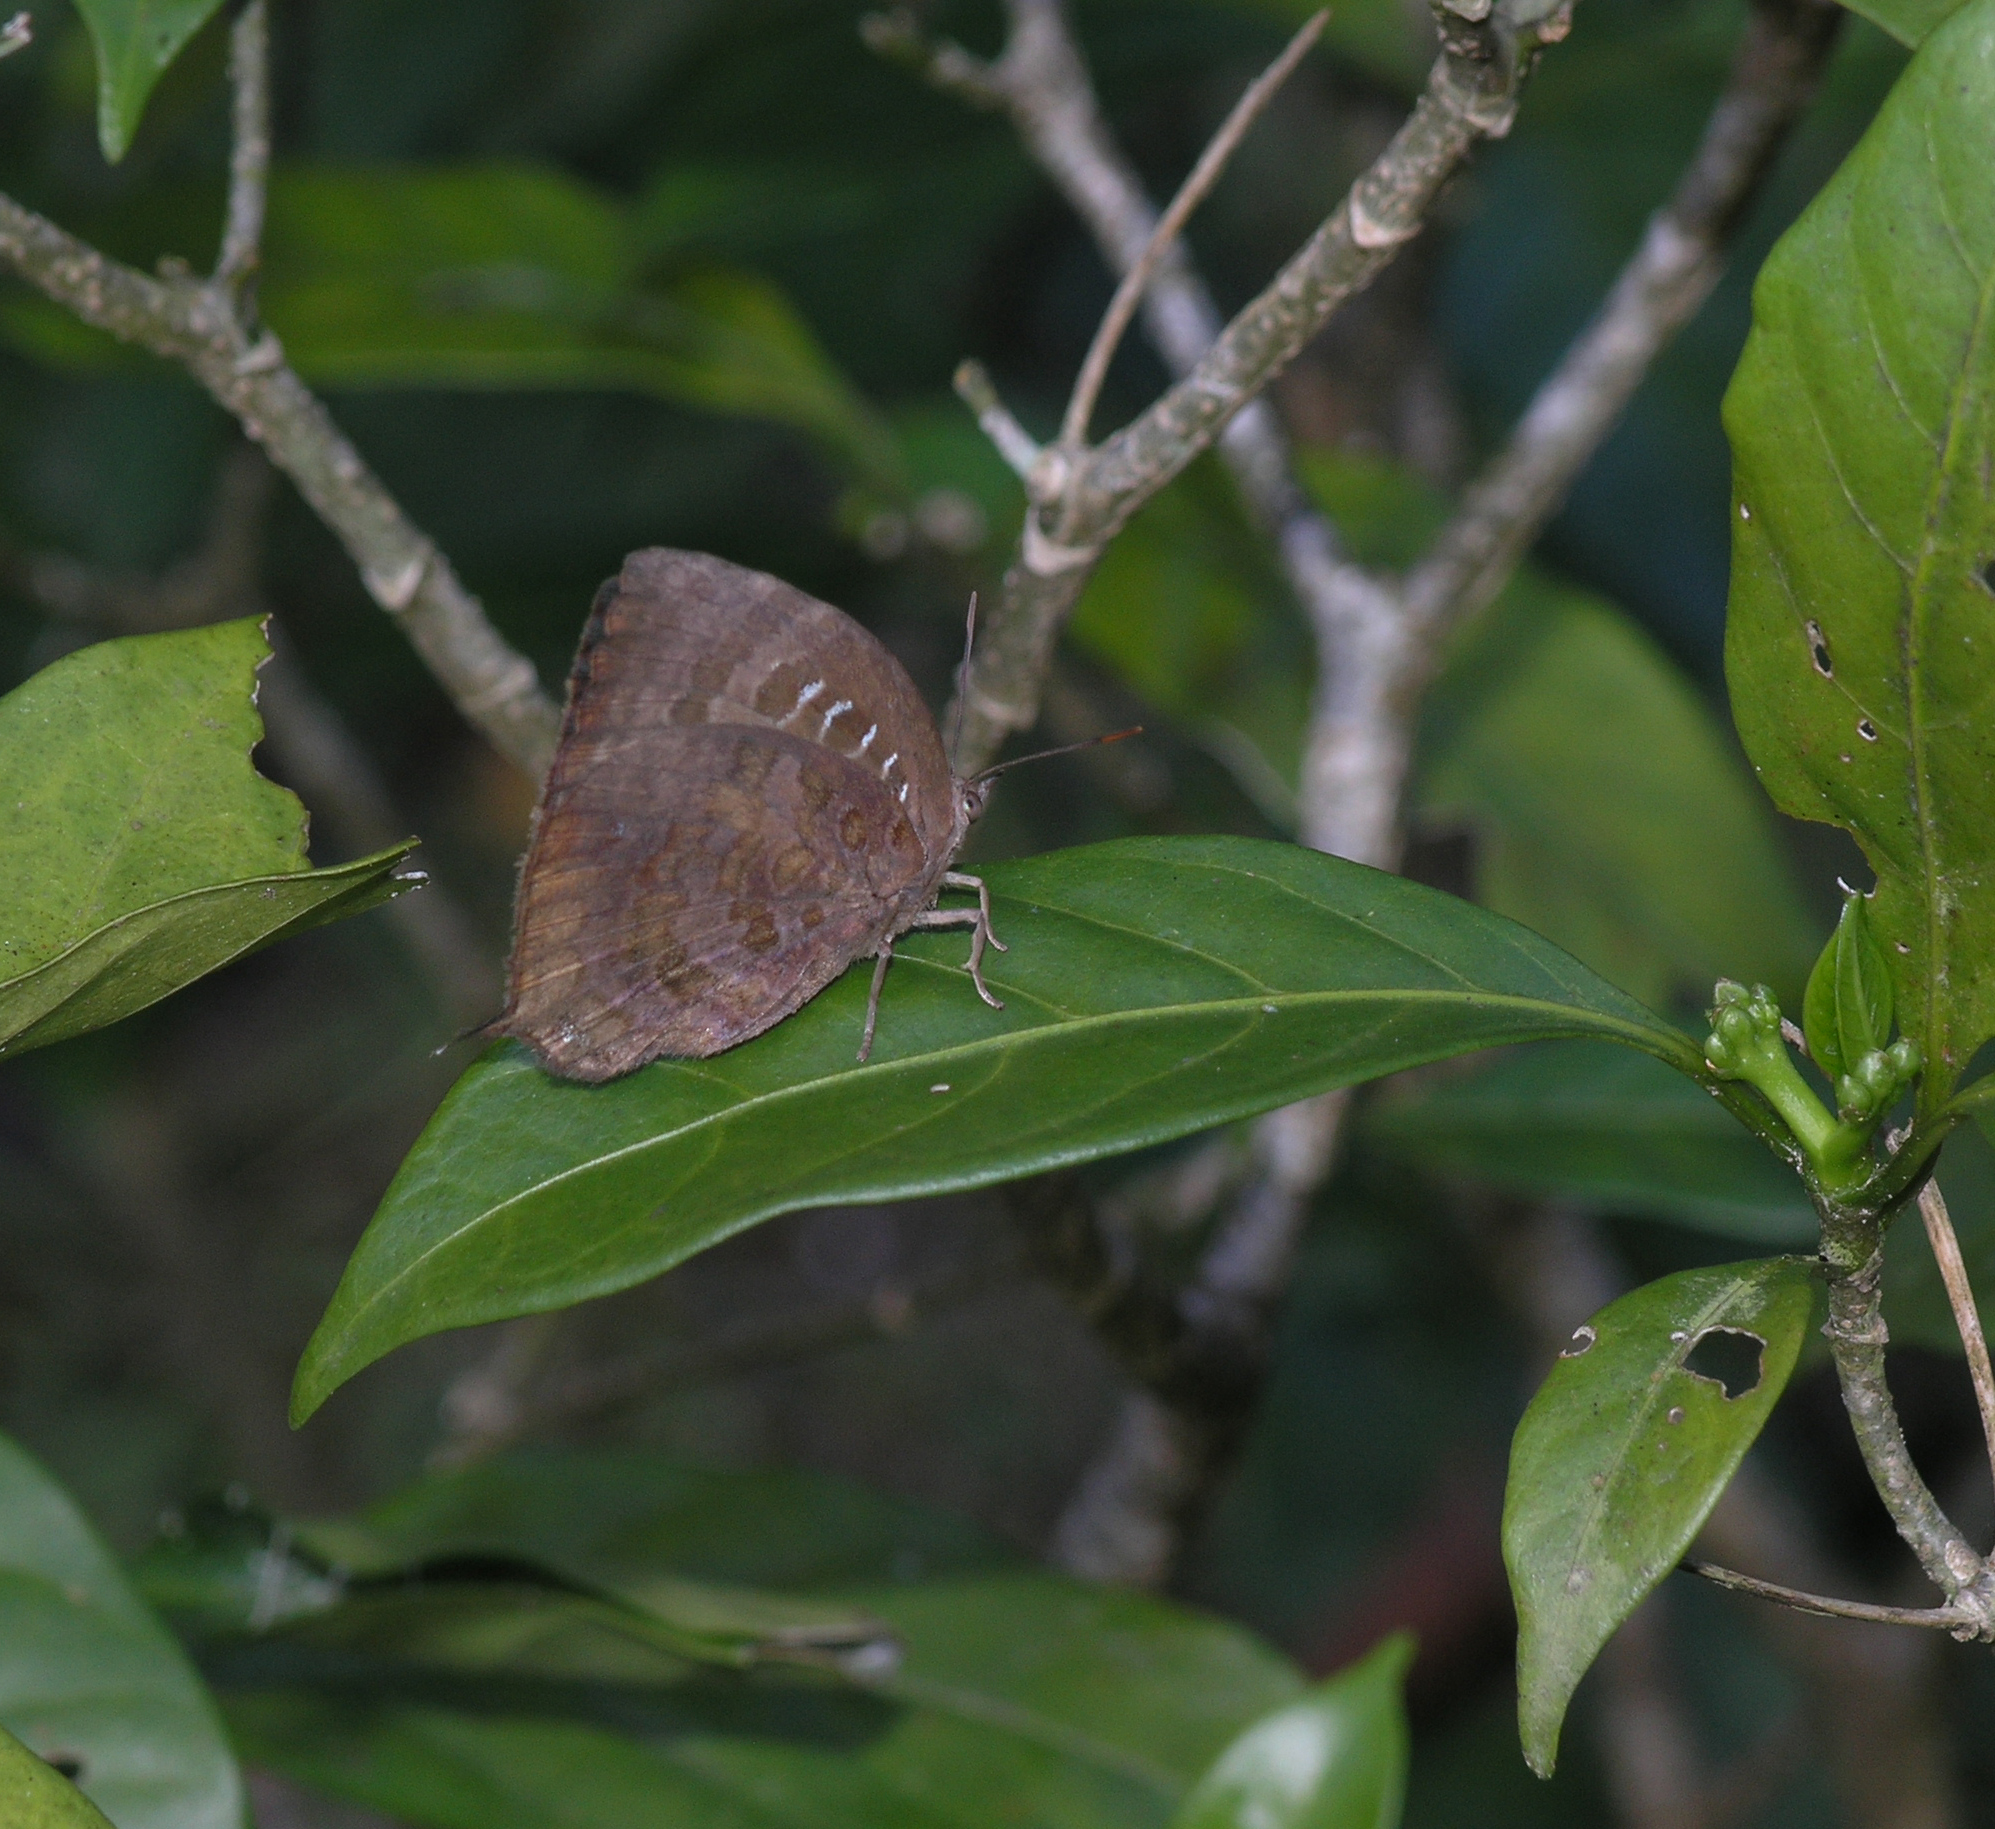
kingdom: Animalia
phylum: Arthropoda
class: Insecta
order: Lepidoptera
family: Lycaenidae
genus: Arhopala
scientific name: Arhopala centaurus
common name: Dull oak-blue
